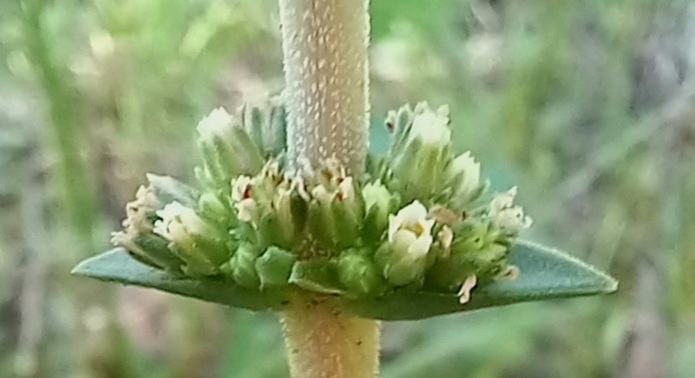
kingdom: Plantae
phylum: Tracheophyta
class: Magnoliopsida
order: Saxifragales
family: Crassulaceae
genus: Crassula
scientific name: Crassula nodulosa
